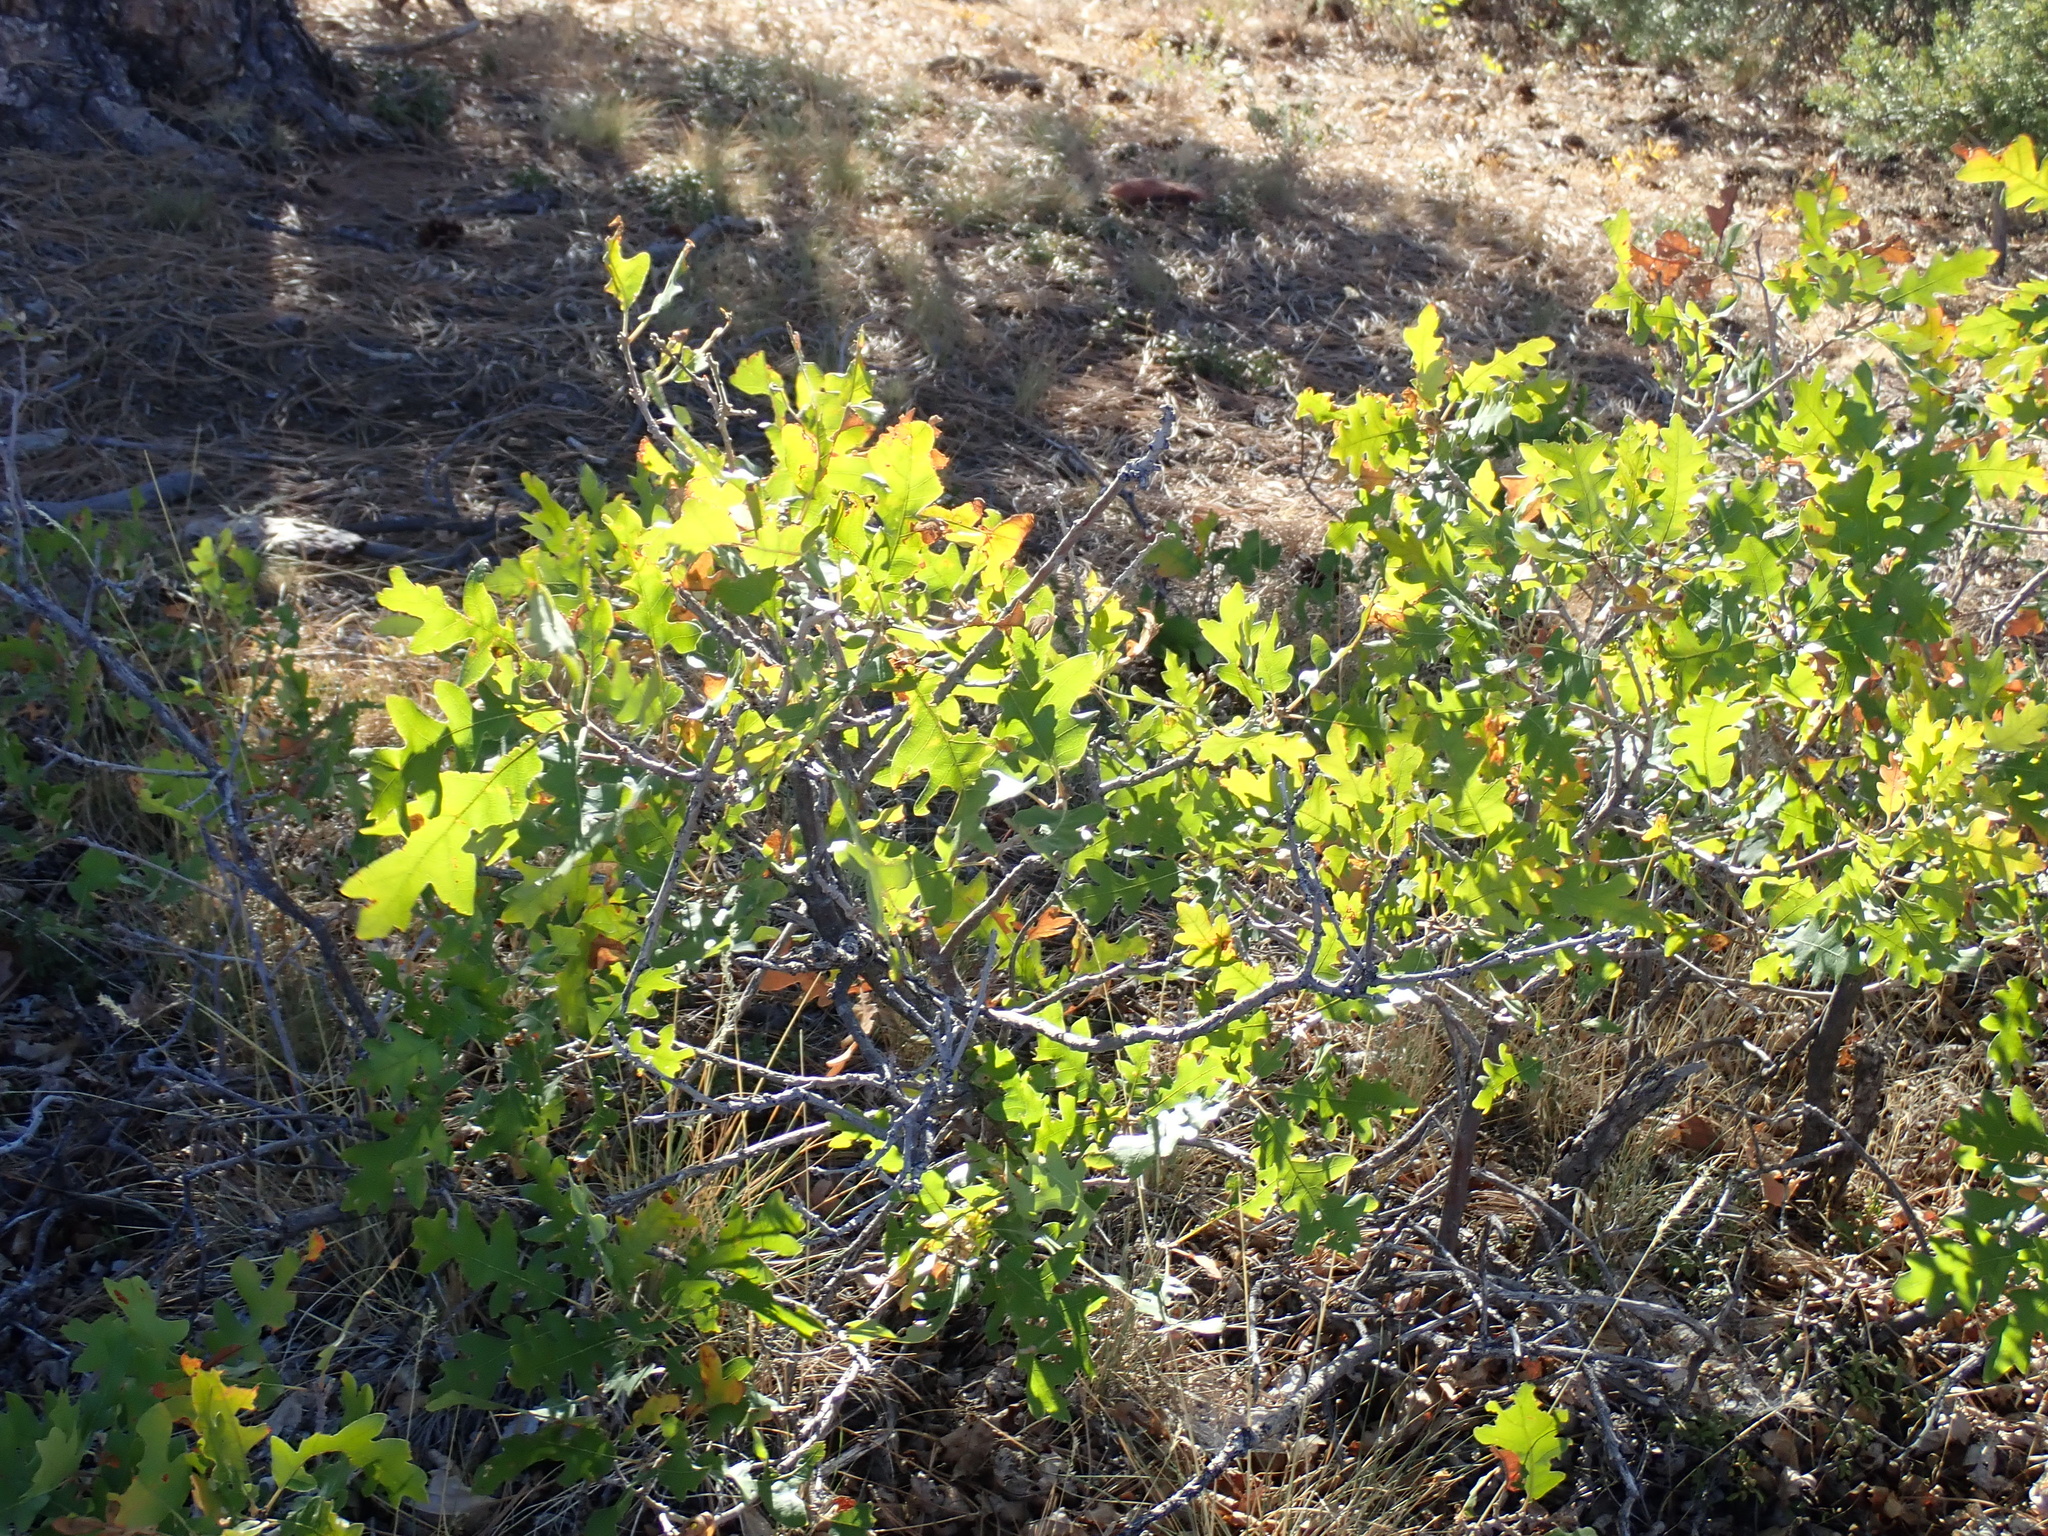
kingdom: Plantae
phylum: Tracheophyta
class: Magnoliopsida
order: Fagales
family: Fagaceae
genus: Quercus
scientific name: Quercus gambelii
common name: Gambel oak
